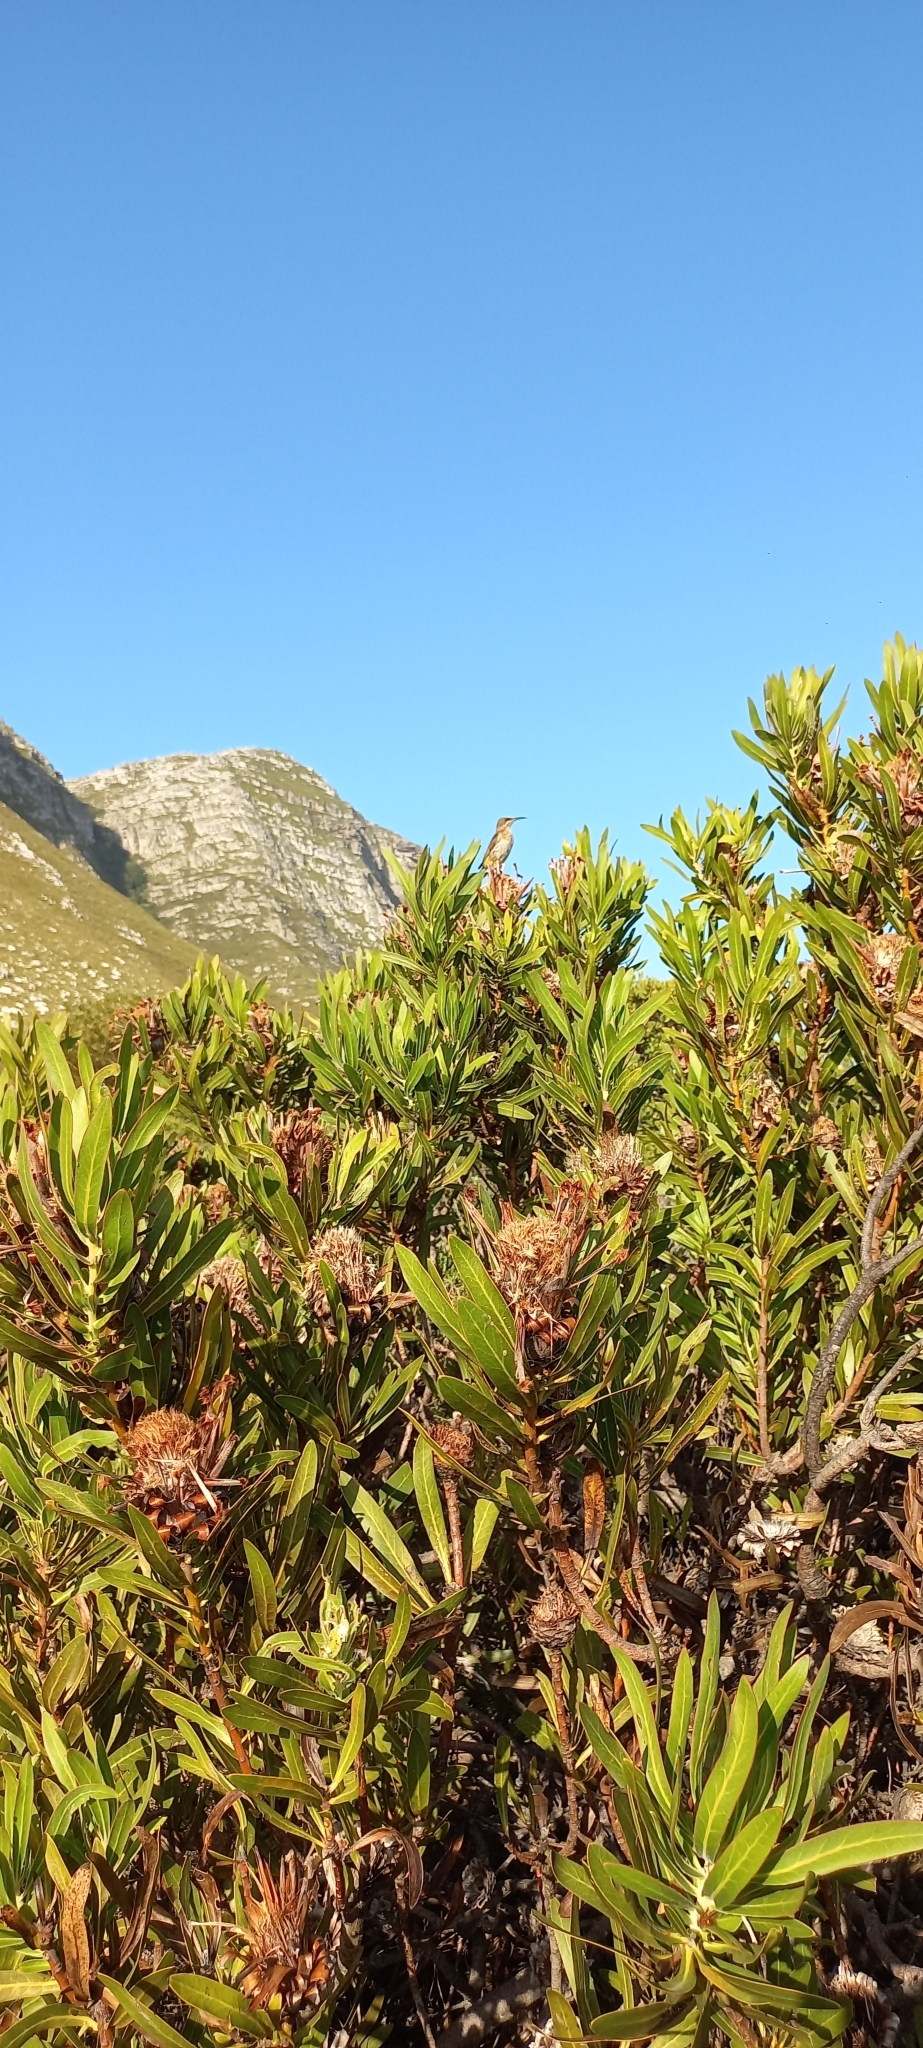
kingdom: Animalia
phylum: Chordata
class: Aves
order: Passeriformes
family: Promeropidae
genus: Promerops
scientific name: Promerops cafer
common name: Cape sugarbird
